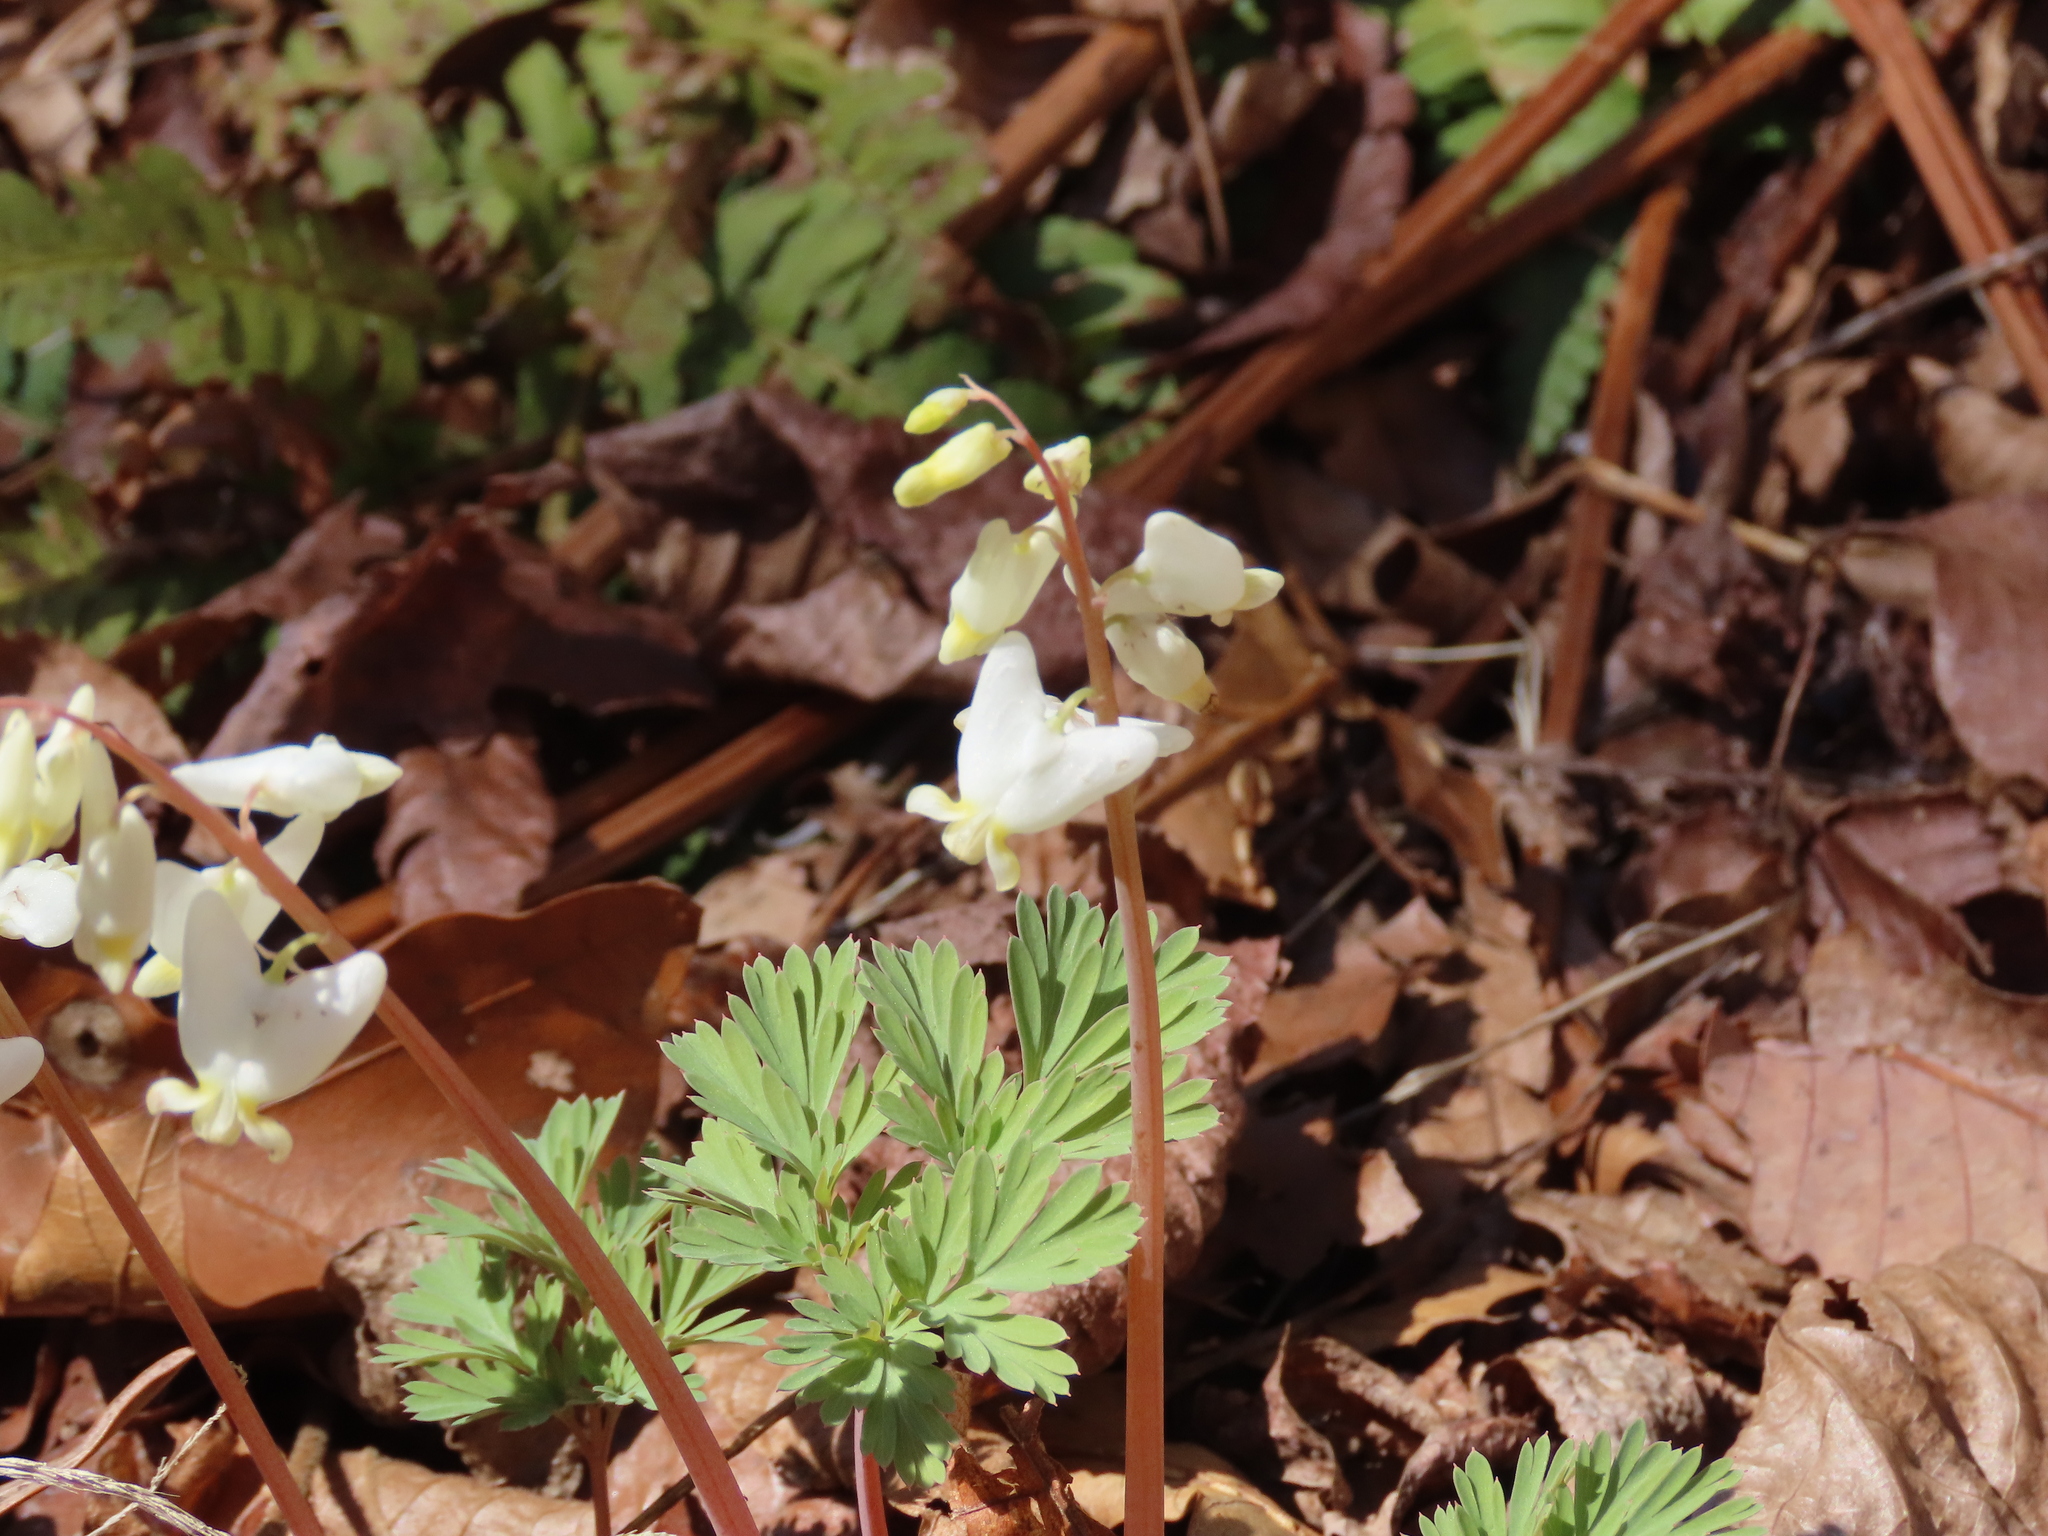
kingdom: Plantae
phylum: Tracheophyta
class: Magnoliopsida
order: Ranunculales
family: Papaveraceae
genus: Dicentra
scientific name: Dicentra cucullaria
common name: Dutchman's breeches
